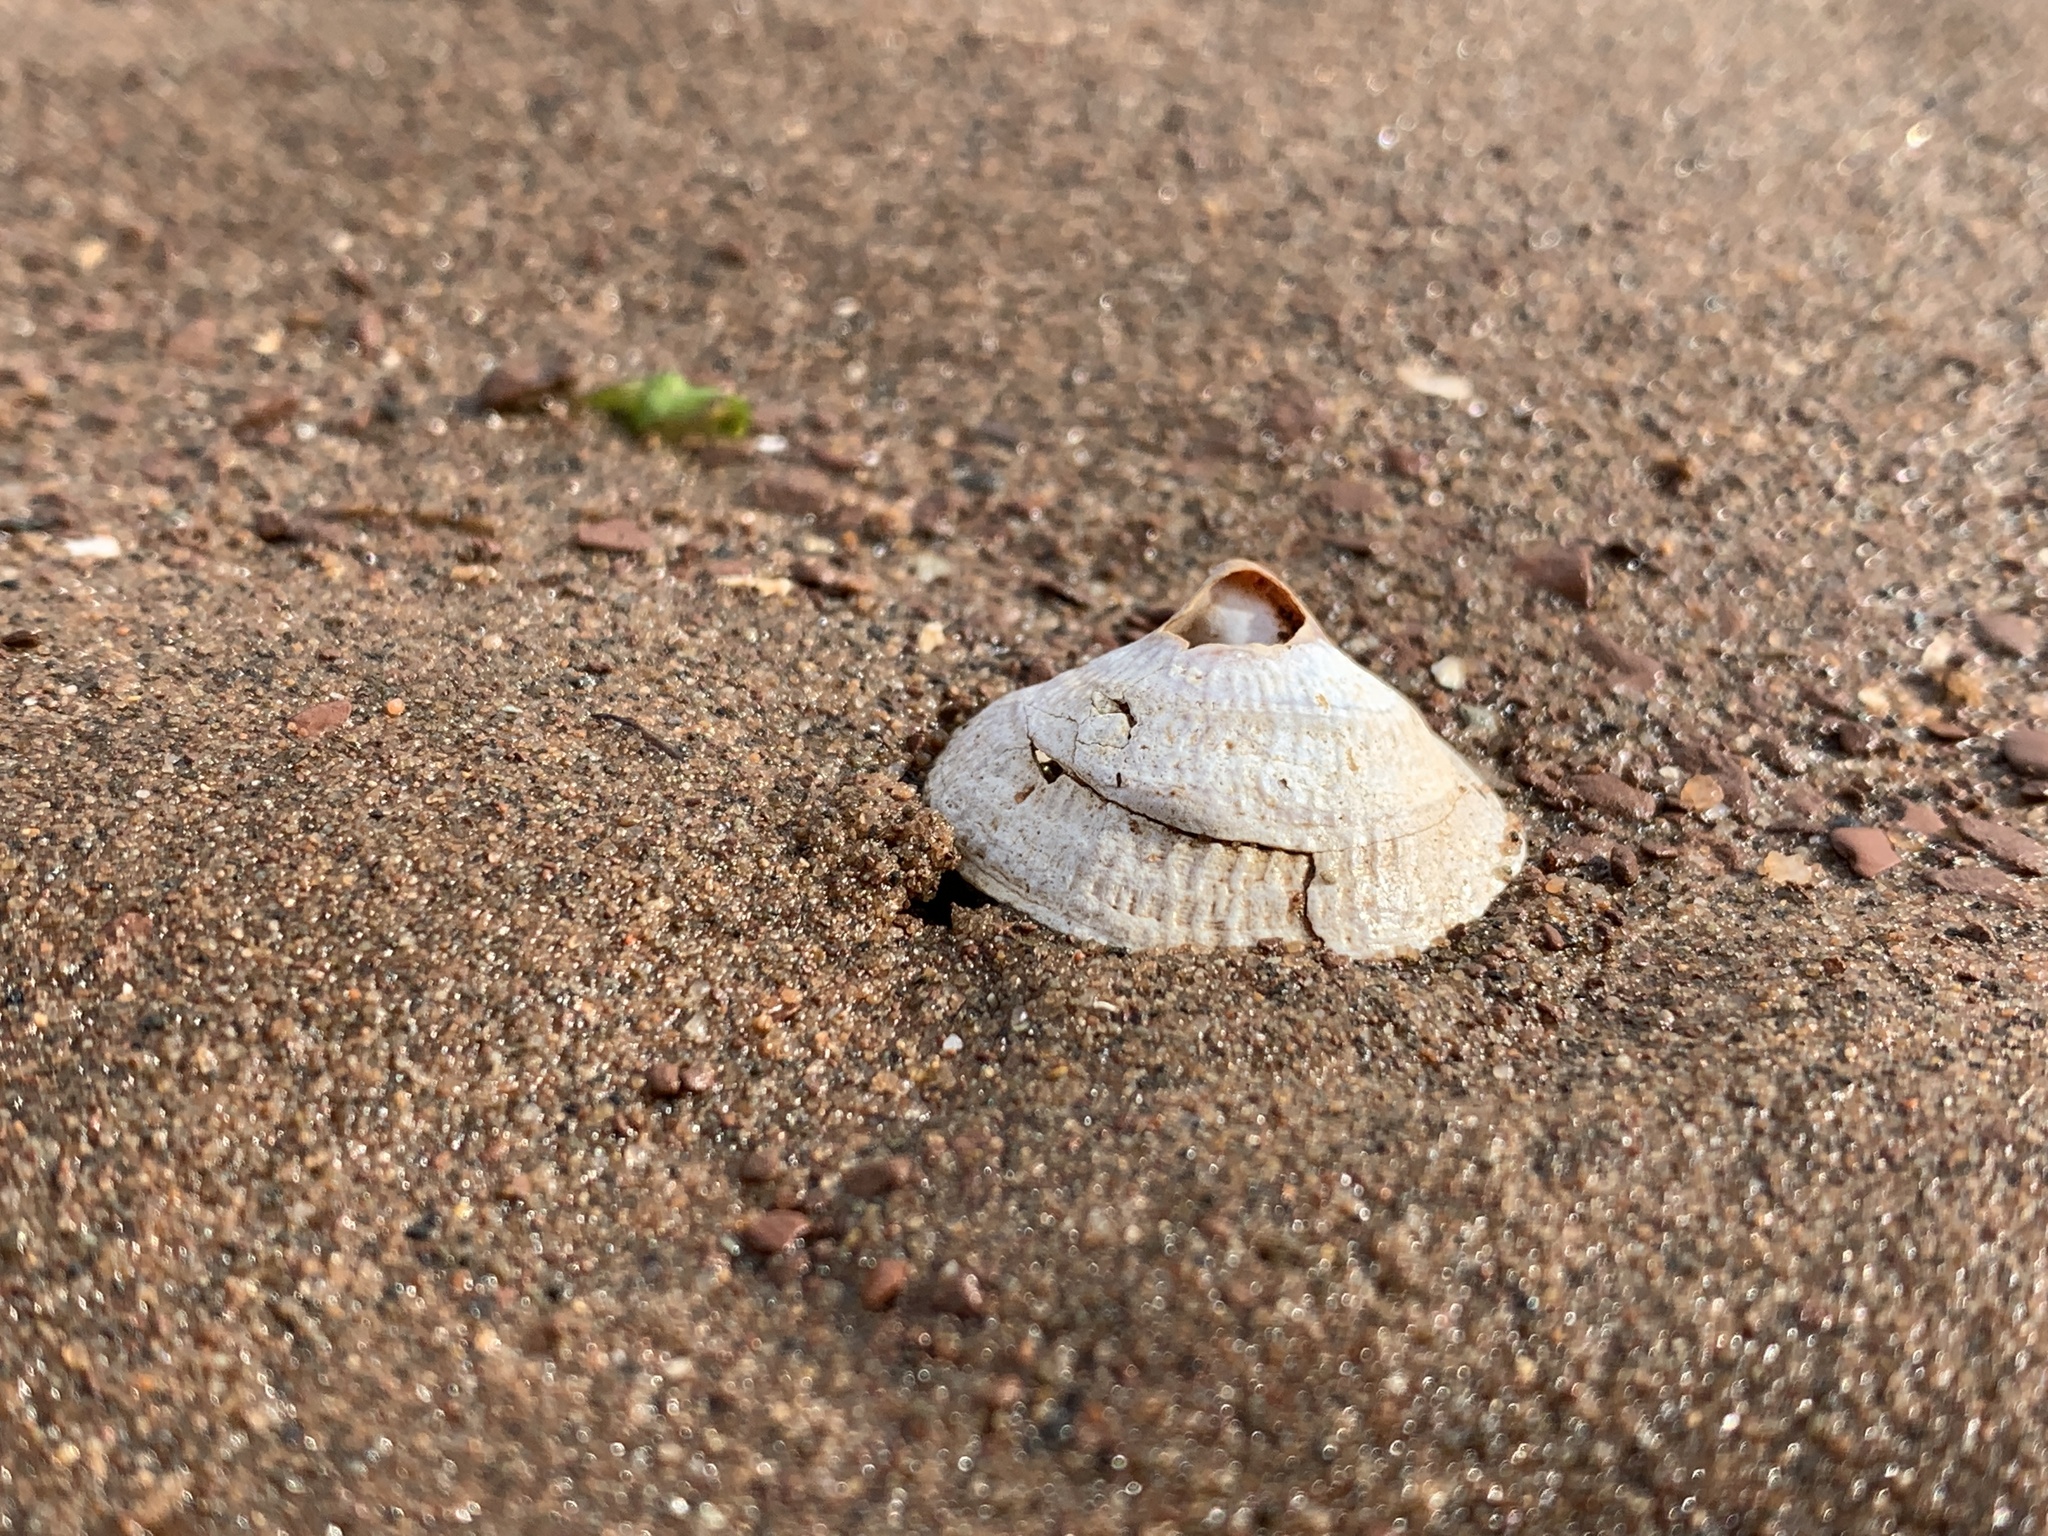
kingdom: Animalia
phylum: Mollusca
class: Gastropoda
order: Littorinimorpha
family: Calyptraeidae
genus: Crucibulum
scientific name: Crucibulum striatum
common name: Striate cup-and -saucer
